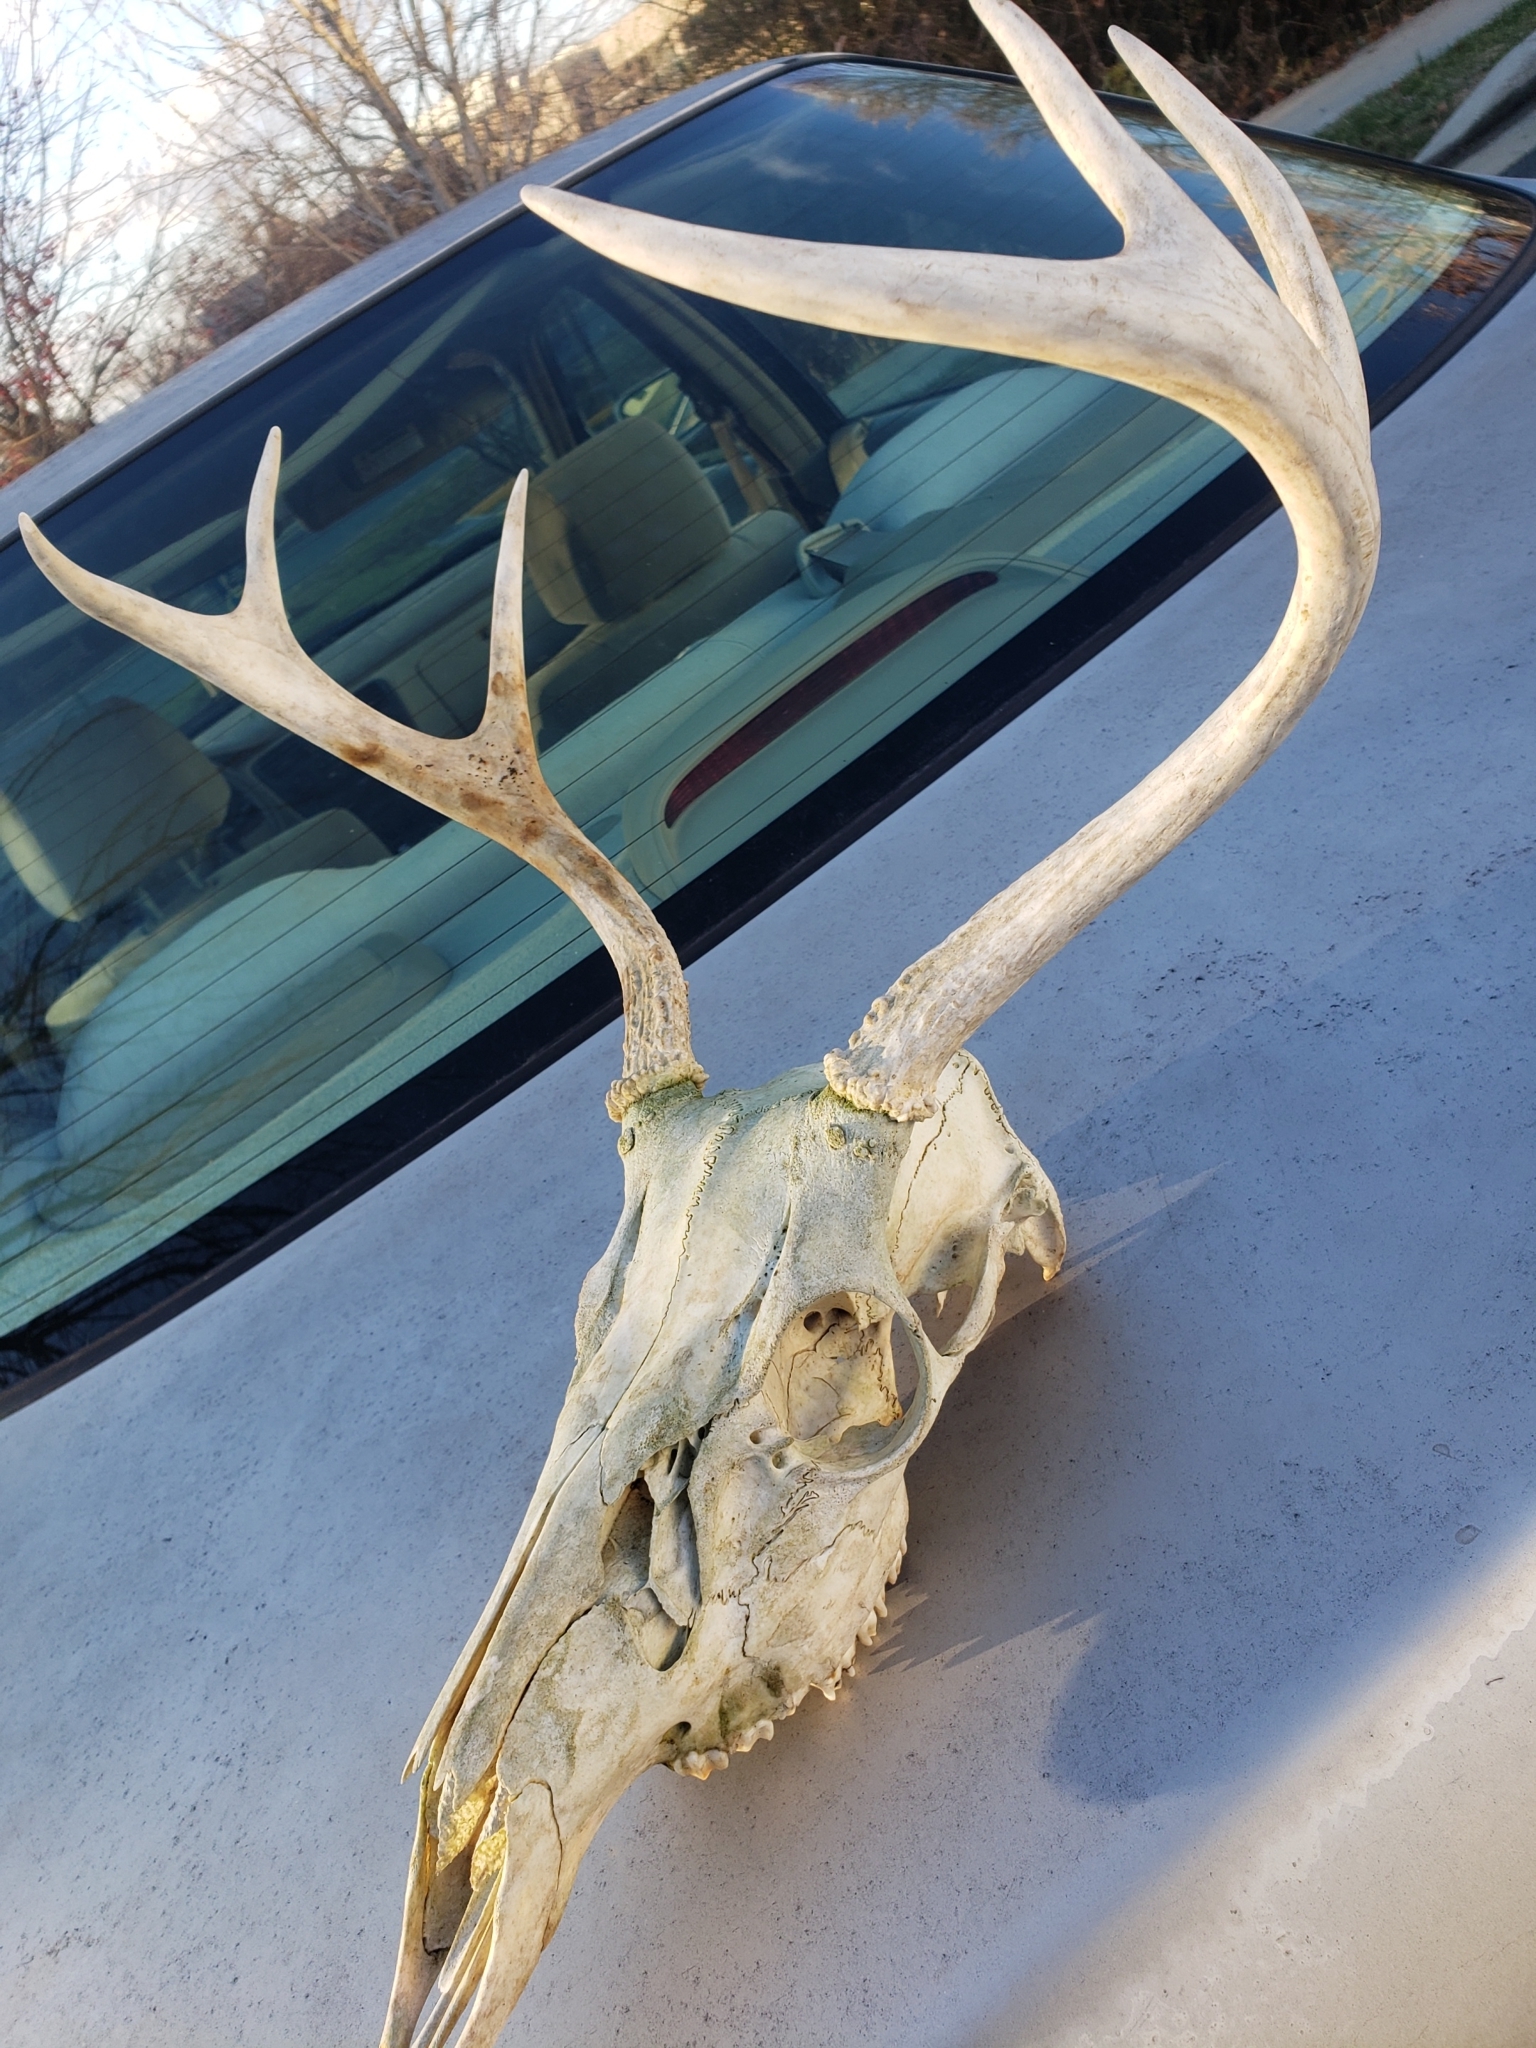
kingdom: Animalia
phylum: Chordata
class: Mammalia
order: Artiodactyla
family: Cervidae
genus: Odocoileus
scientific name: Odocoileus virginianus
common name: White-tailed deer
